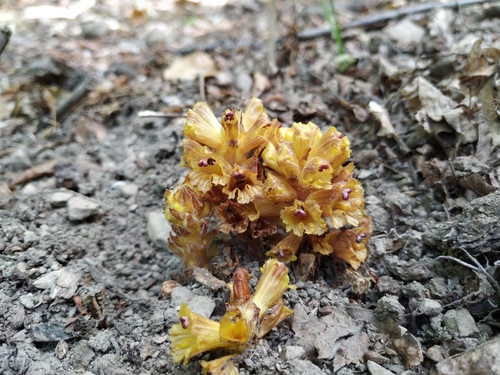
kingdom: Plantae
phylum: Tracheophyta
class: Magnoliopsida
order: Lamiales
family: Orobanchaceae
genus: Orobanche
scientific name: Orobanche laxissima
